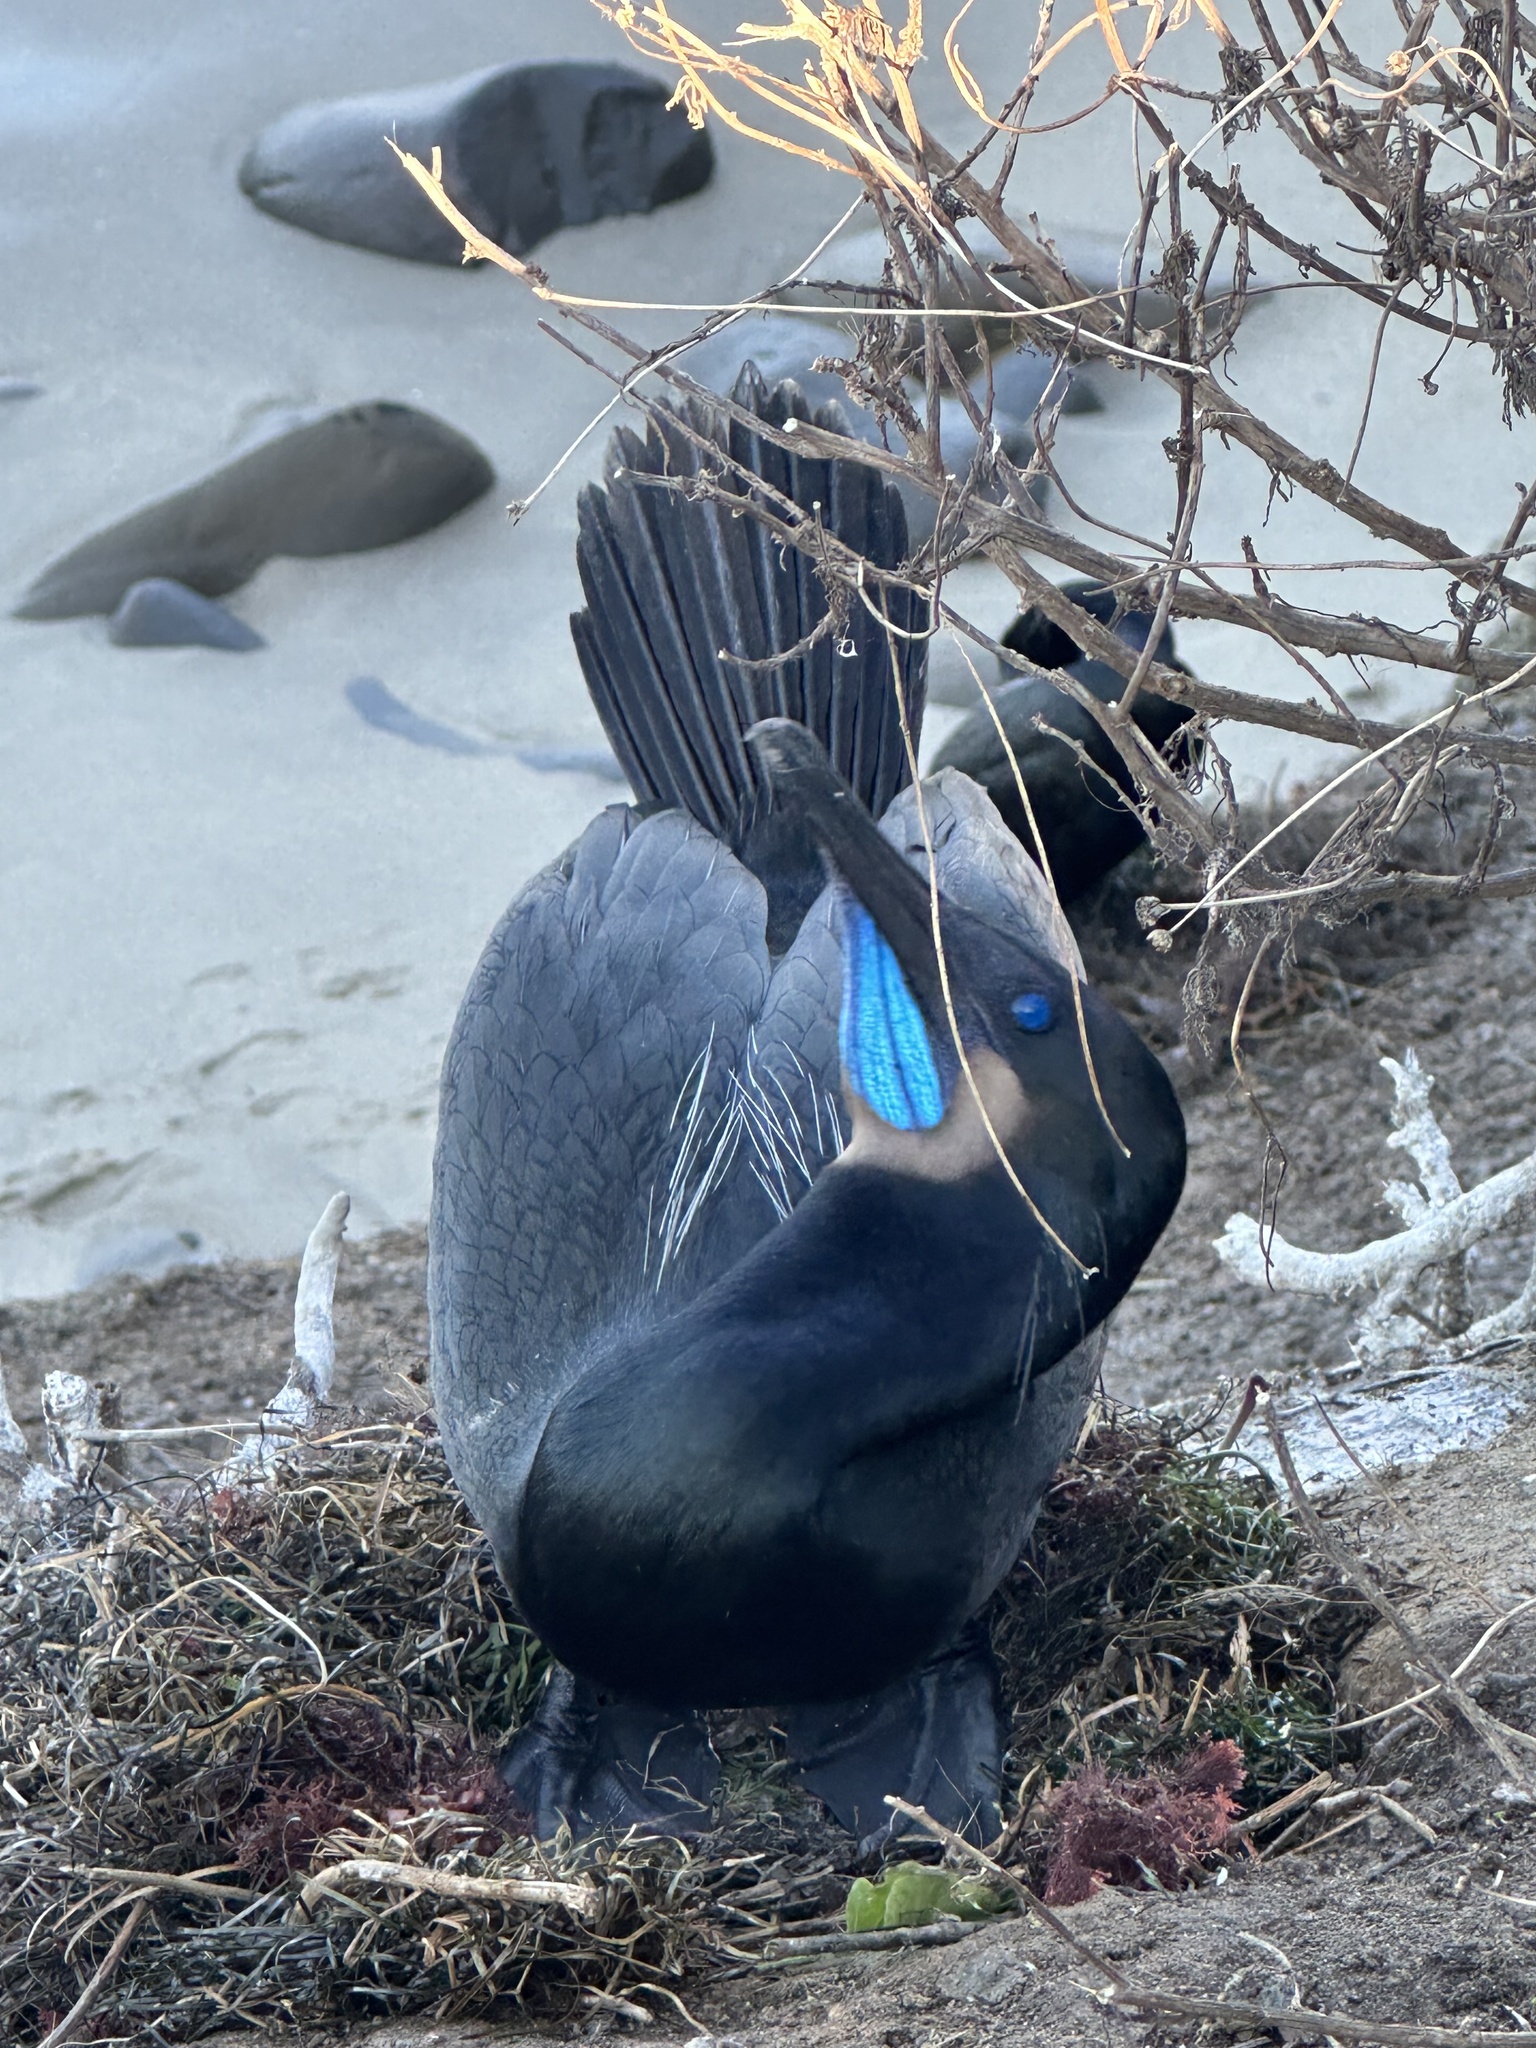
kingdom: Animalia
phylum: Chordata
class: Aves
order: Suliformes
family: Phalacrocoracidae
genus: Urile
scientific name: Urile penicillatus
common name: Brandt's cormorant
